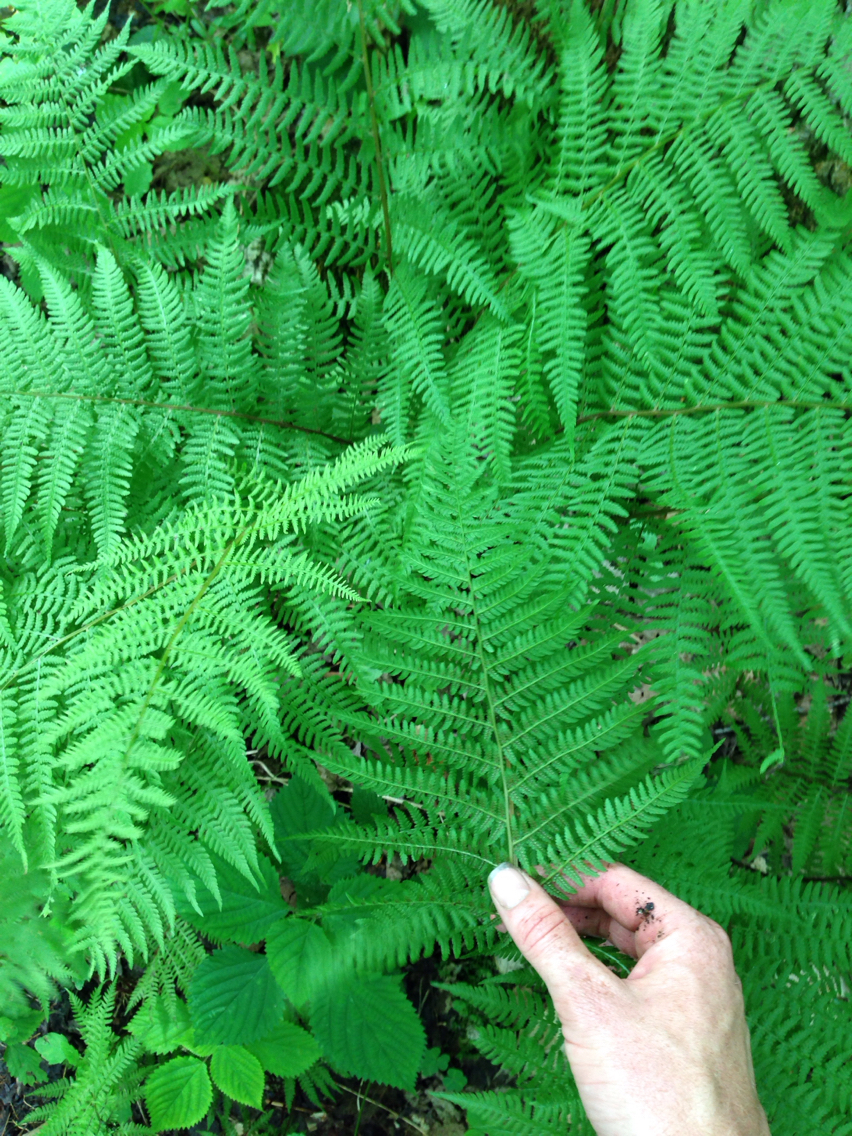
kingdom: Plantae
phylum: Tracheophyta
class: Polypodiopsida
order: Polypodiales
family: Athyriaceae
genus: Athyrium
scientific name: Athyrium angustum
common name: Northern lady fern
